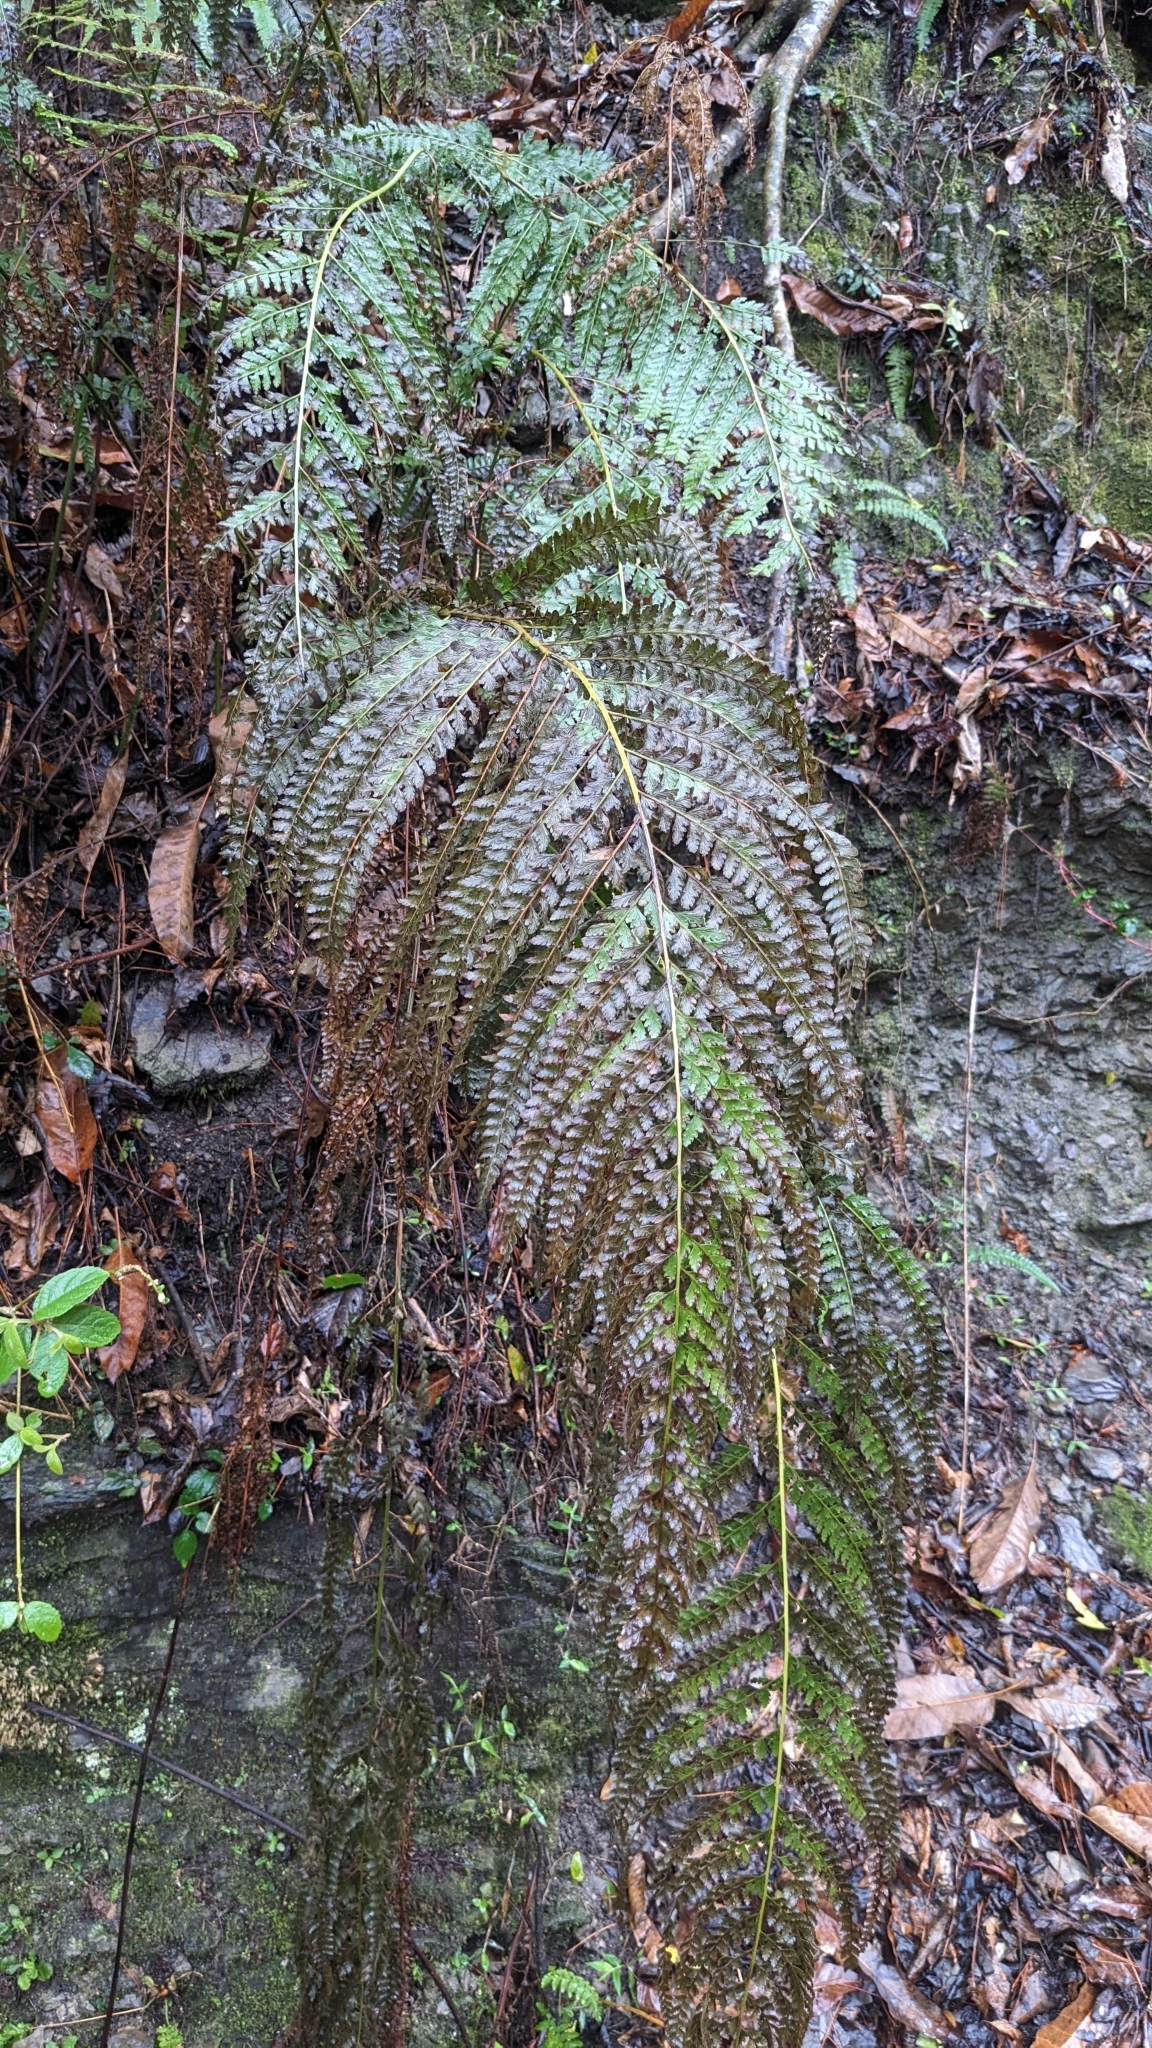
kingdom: Plantae
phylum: Tracheophyta
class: Polypodiopsida
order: Polypodiales
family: Dennstaedtiaceae
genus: Microlepia
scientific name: Microlepia strigosa
